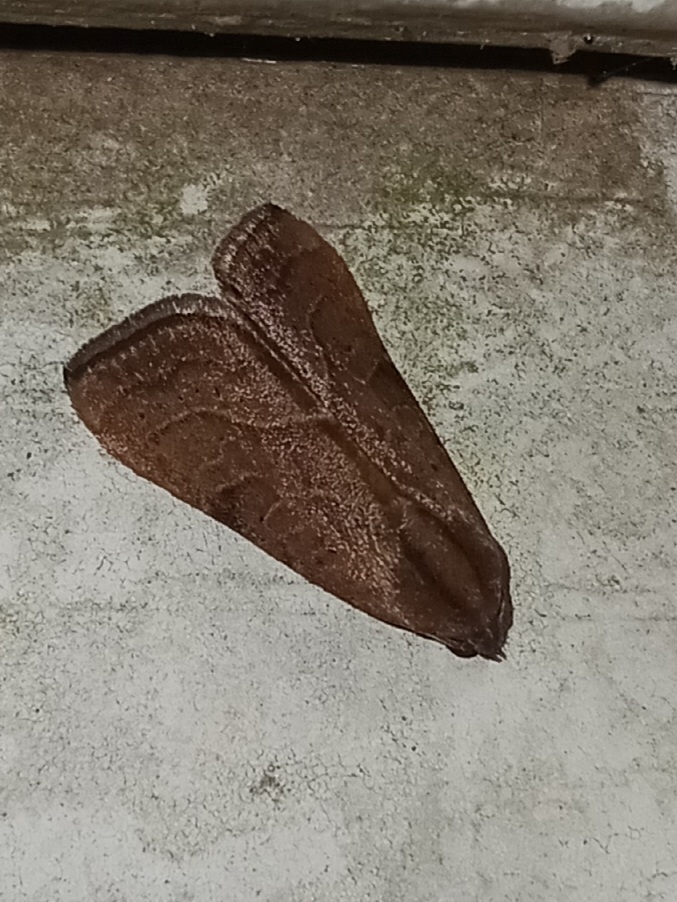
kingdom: Animalia
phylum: Arthropoda
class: Insecta
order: Lepidoptera
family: Noctuidae
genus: Galgula
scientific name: Galgula partita
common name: Wedgeling
